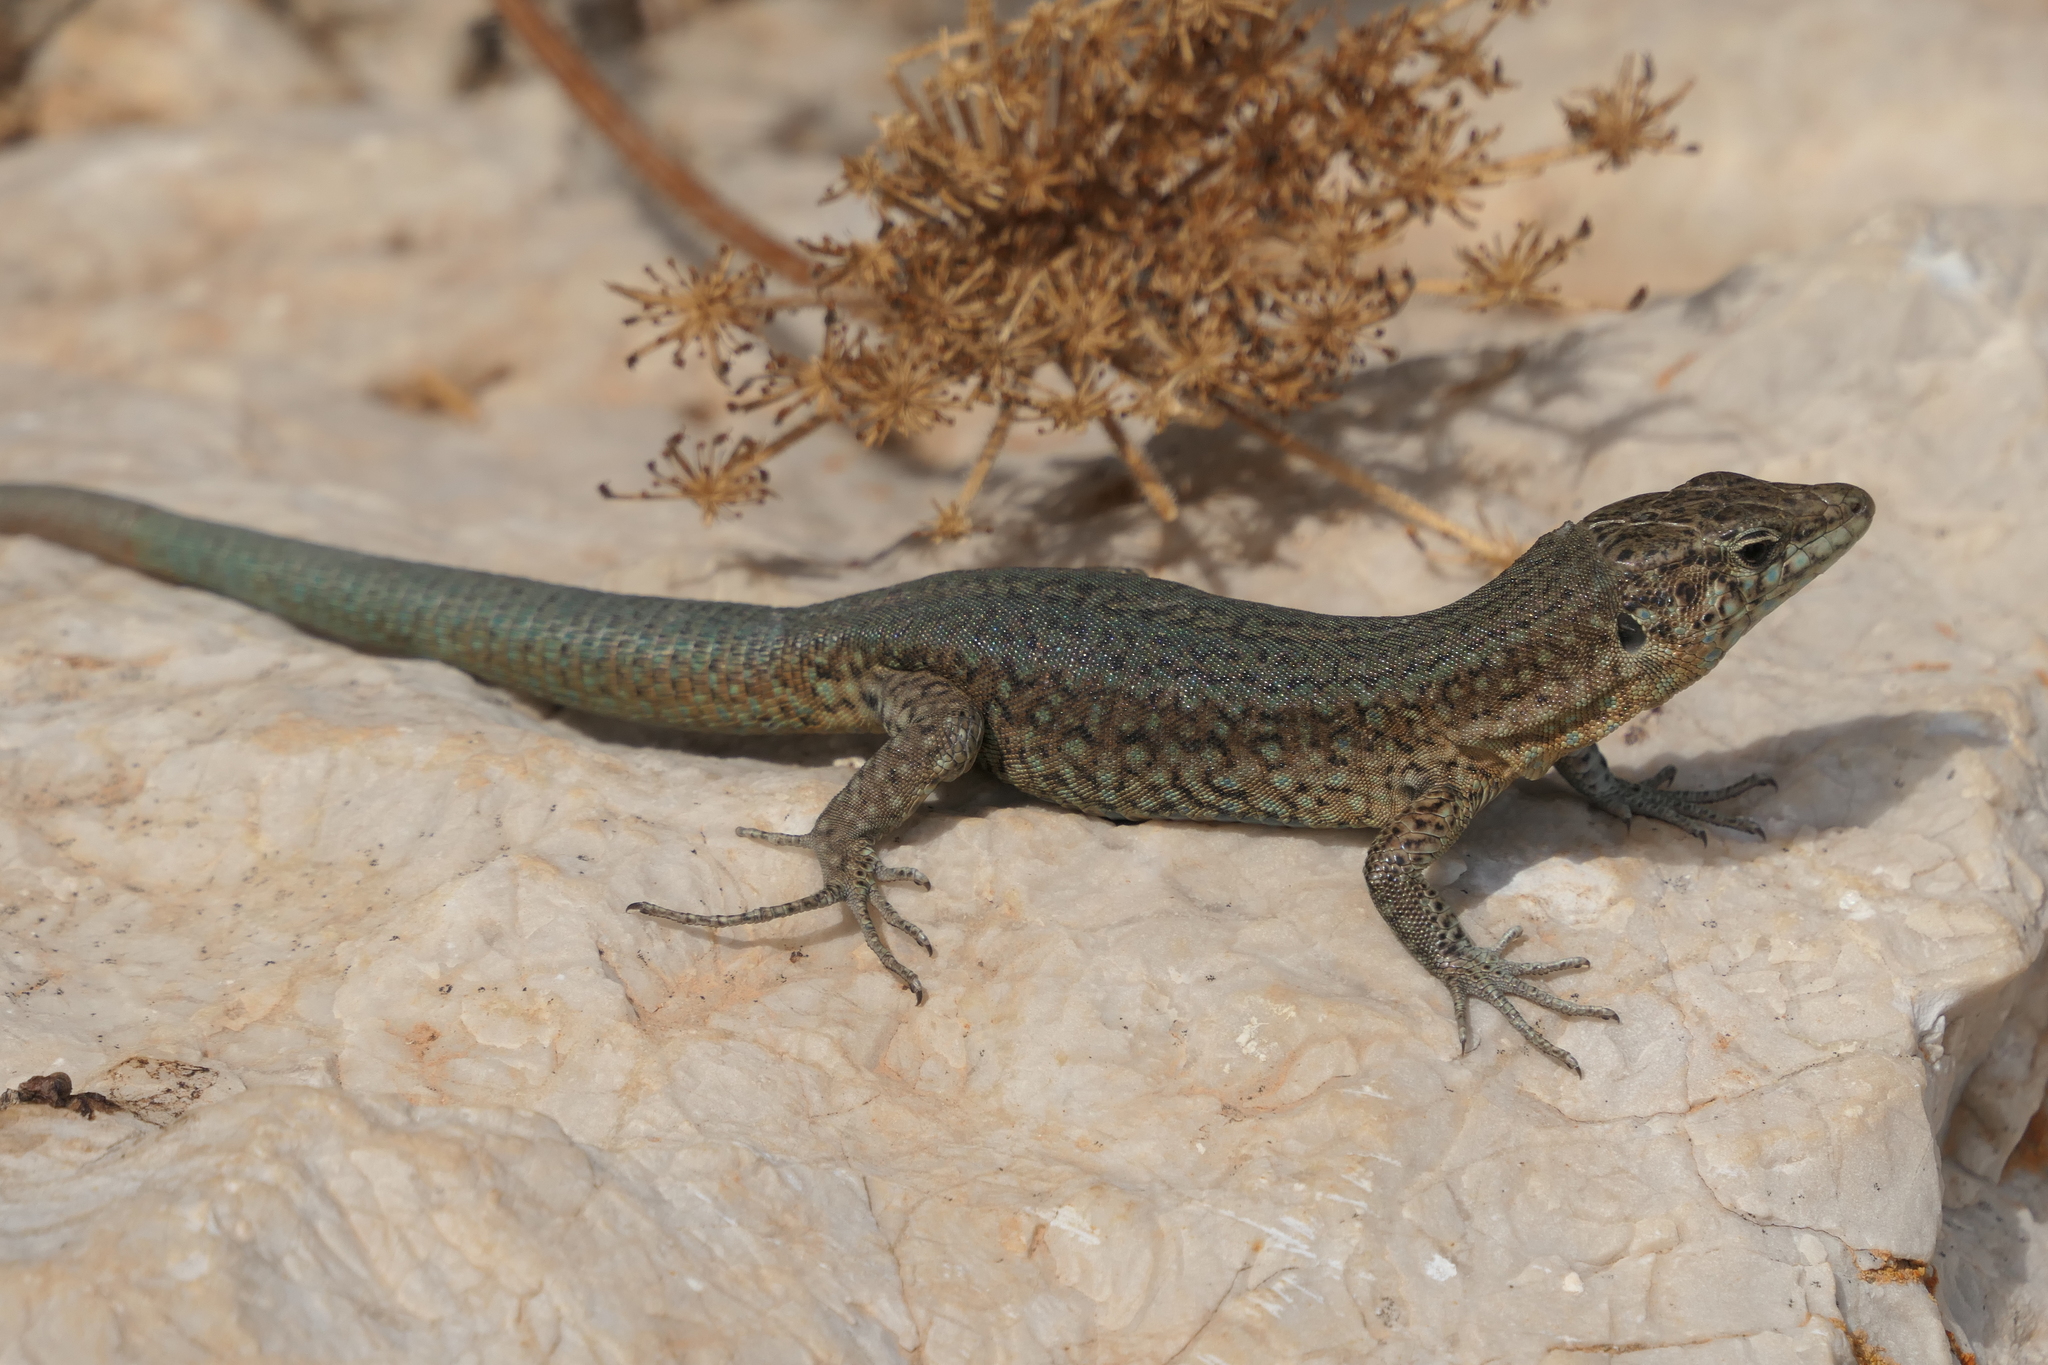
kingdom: Animalia
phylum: Chordata
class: Squamata
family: Lacertidae
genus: Podarcis
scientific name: Podarcis lilfordi
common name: Belearic lizard
